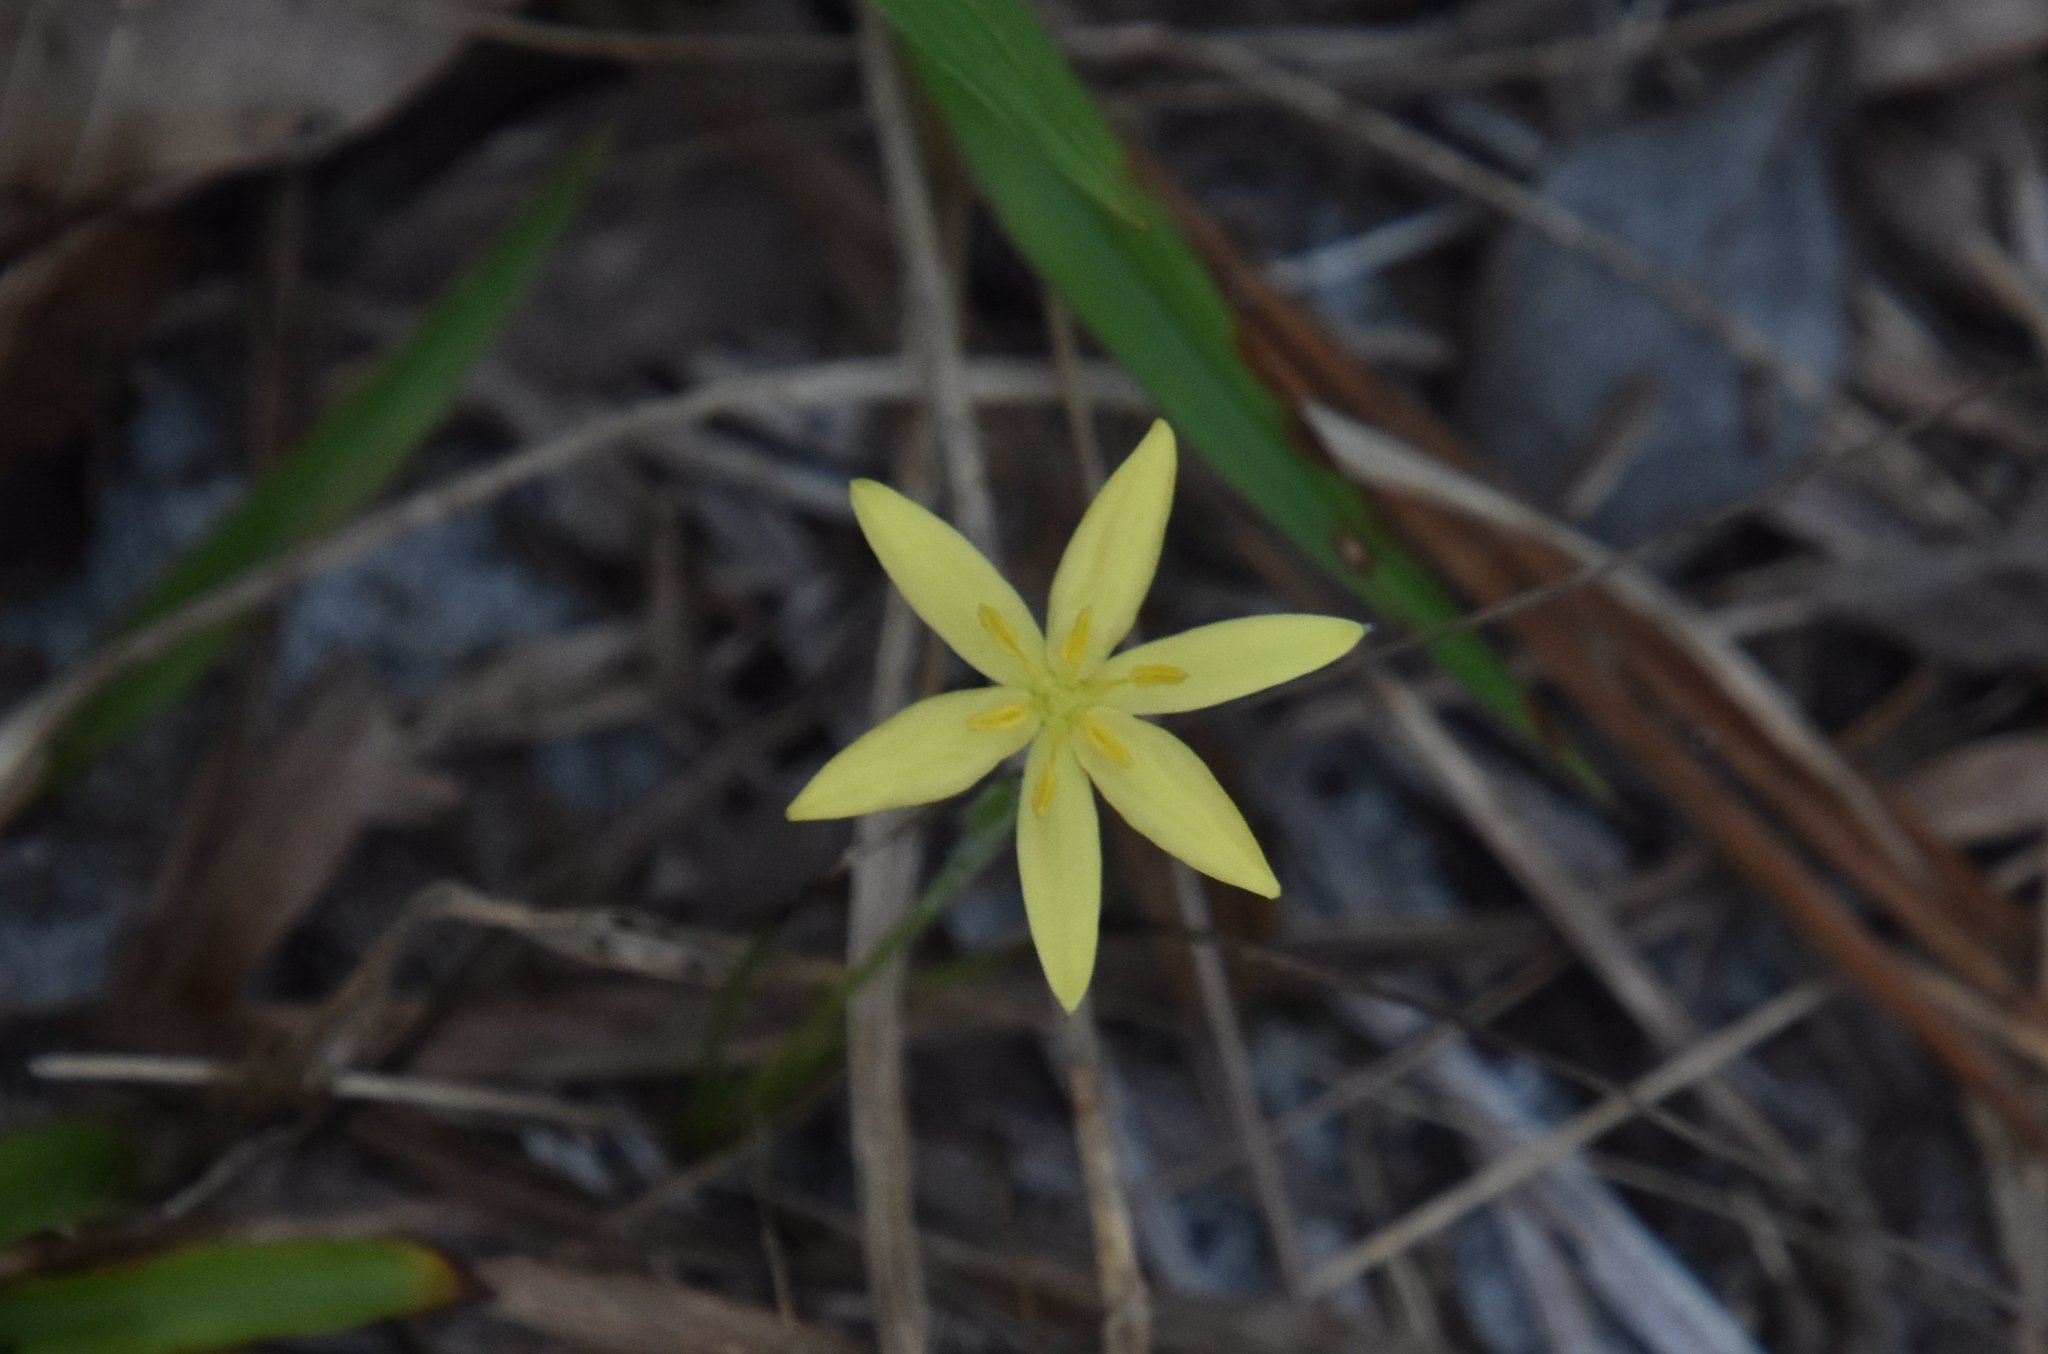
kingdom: Plantae
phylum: Tracheophyta
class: Liliopsida
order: Asparagales
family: Hypoxidaceae
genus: Hypoxis
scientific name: Hypoxis juncea
